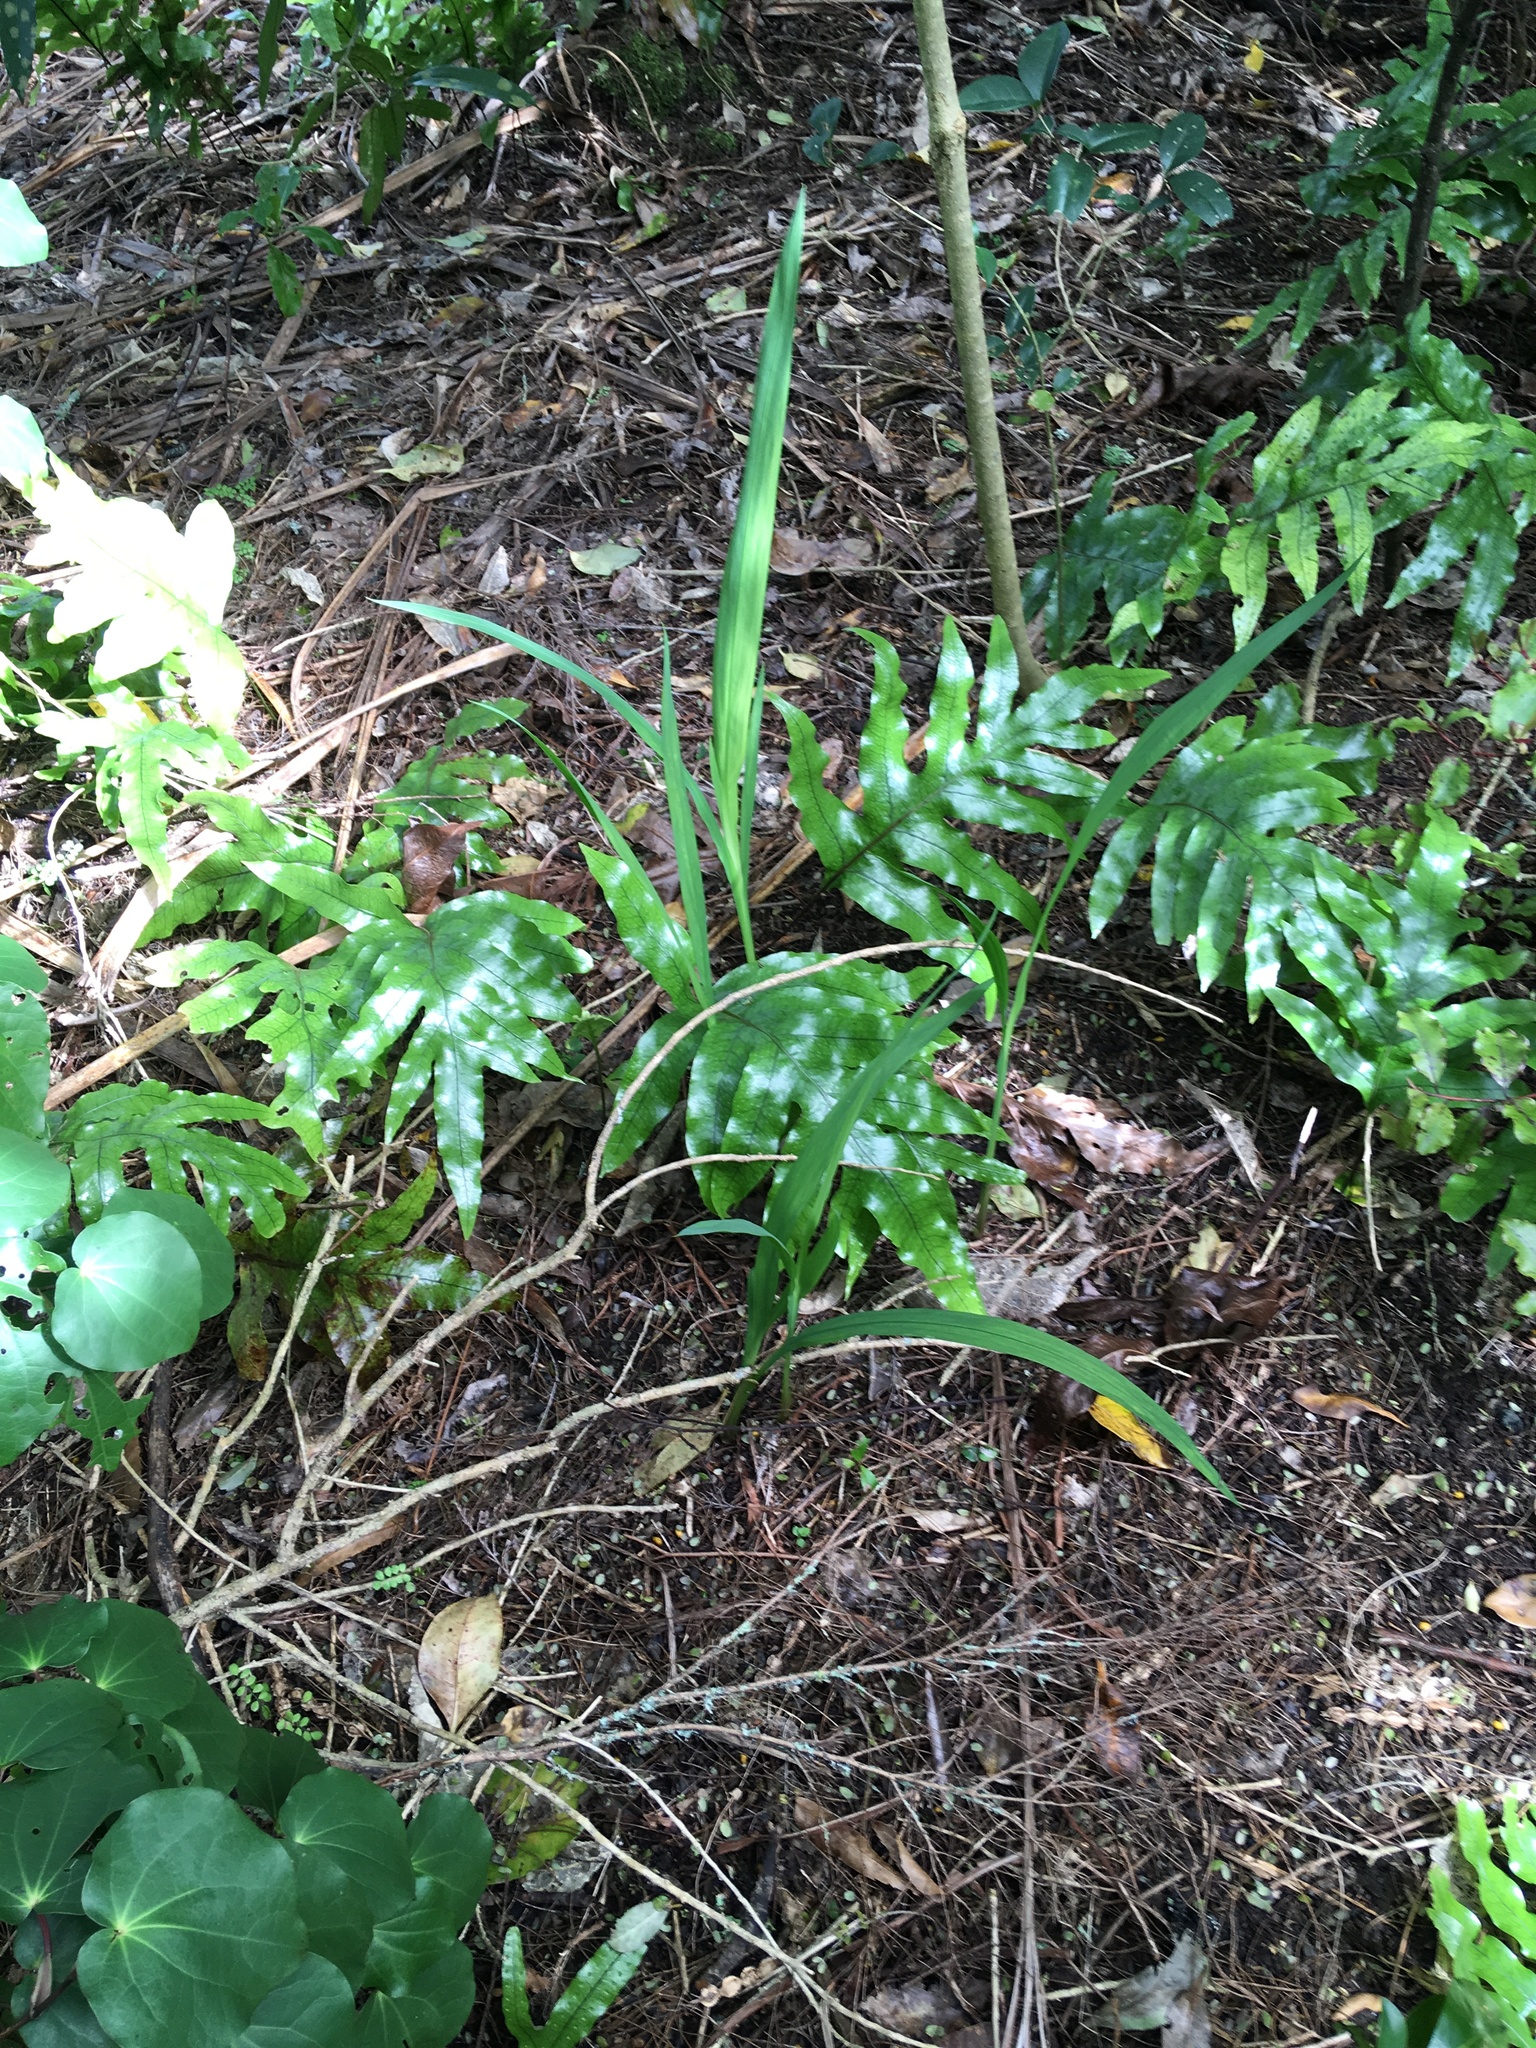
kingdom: Plantae
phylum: Tracheophyta
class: Magnoliopsida
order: Piperales
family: Piperaceae
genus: Macropiper
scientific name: Macropiper excelsum
